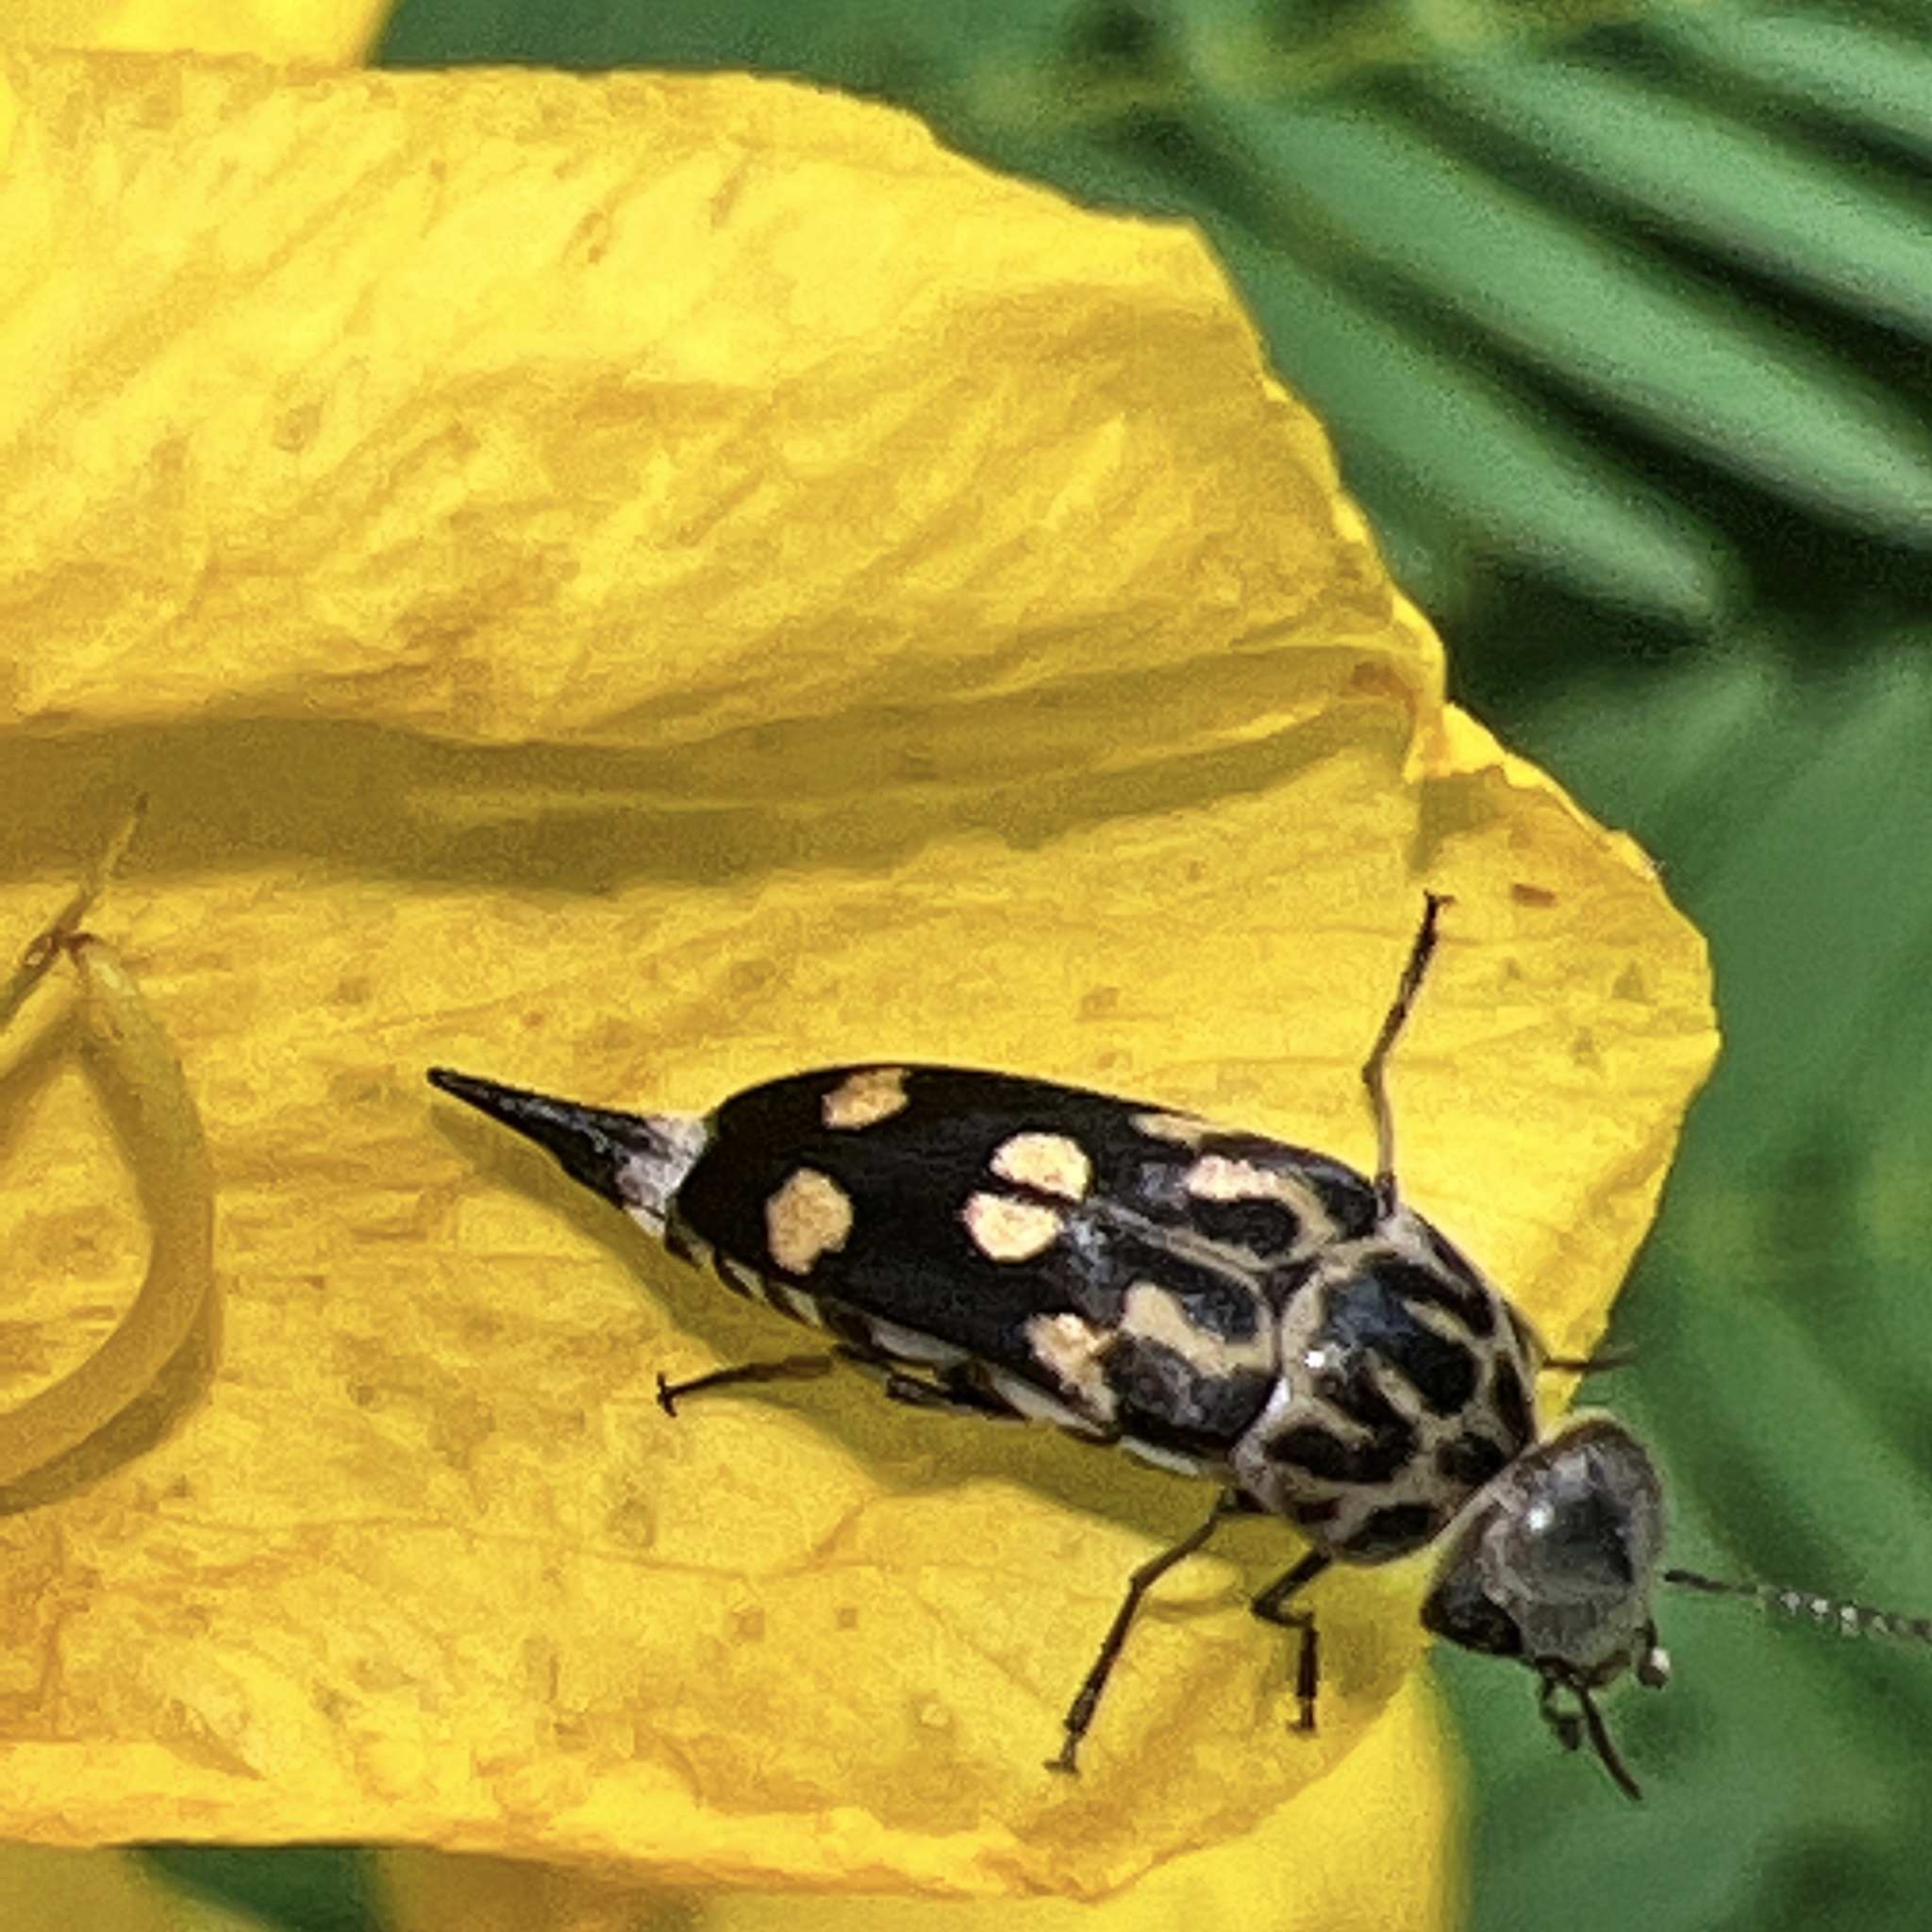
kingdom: Animalia
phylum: Arthropoda
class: Insecta
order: Coleoptera
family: Mordellidae
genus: Hoshihananomia
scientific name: Hoshihananomia octopunctata
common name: Eight-spotted tumbling flower beetle
